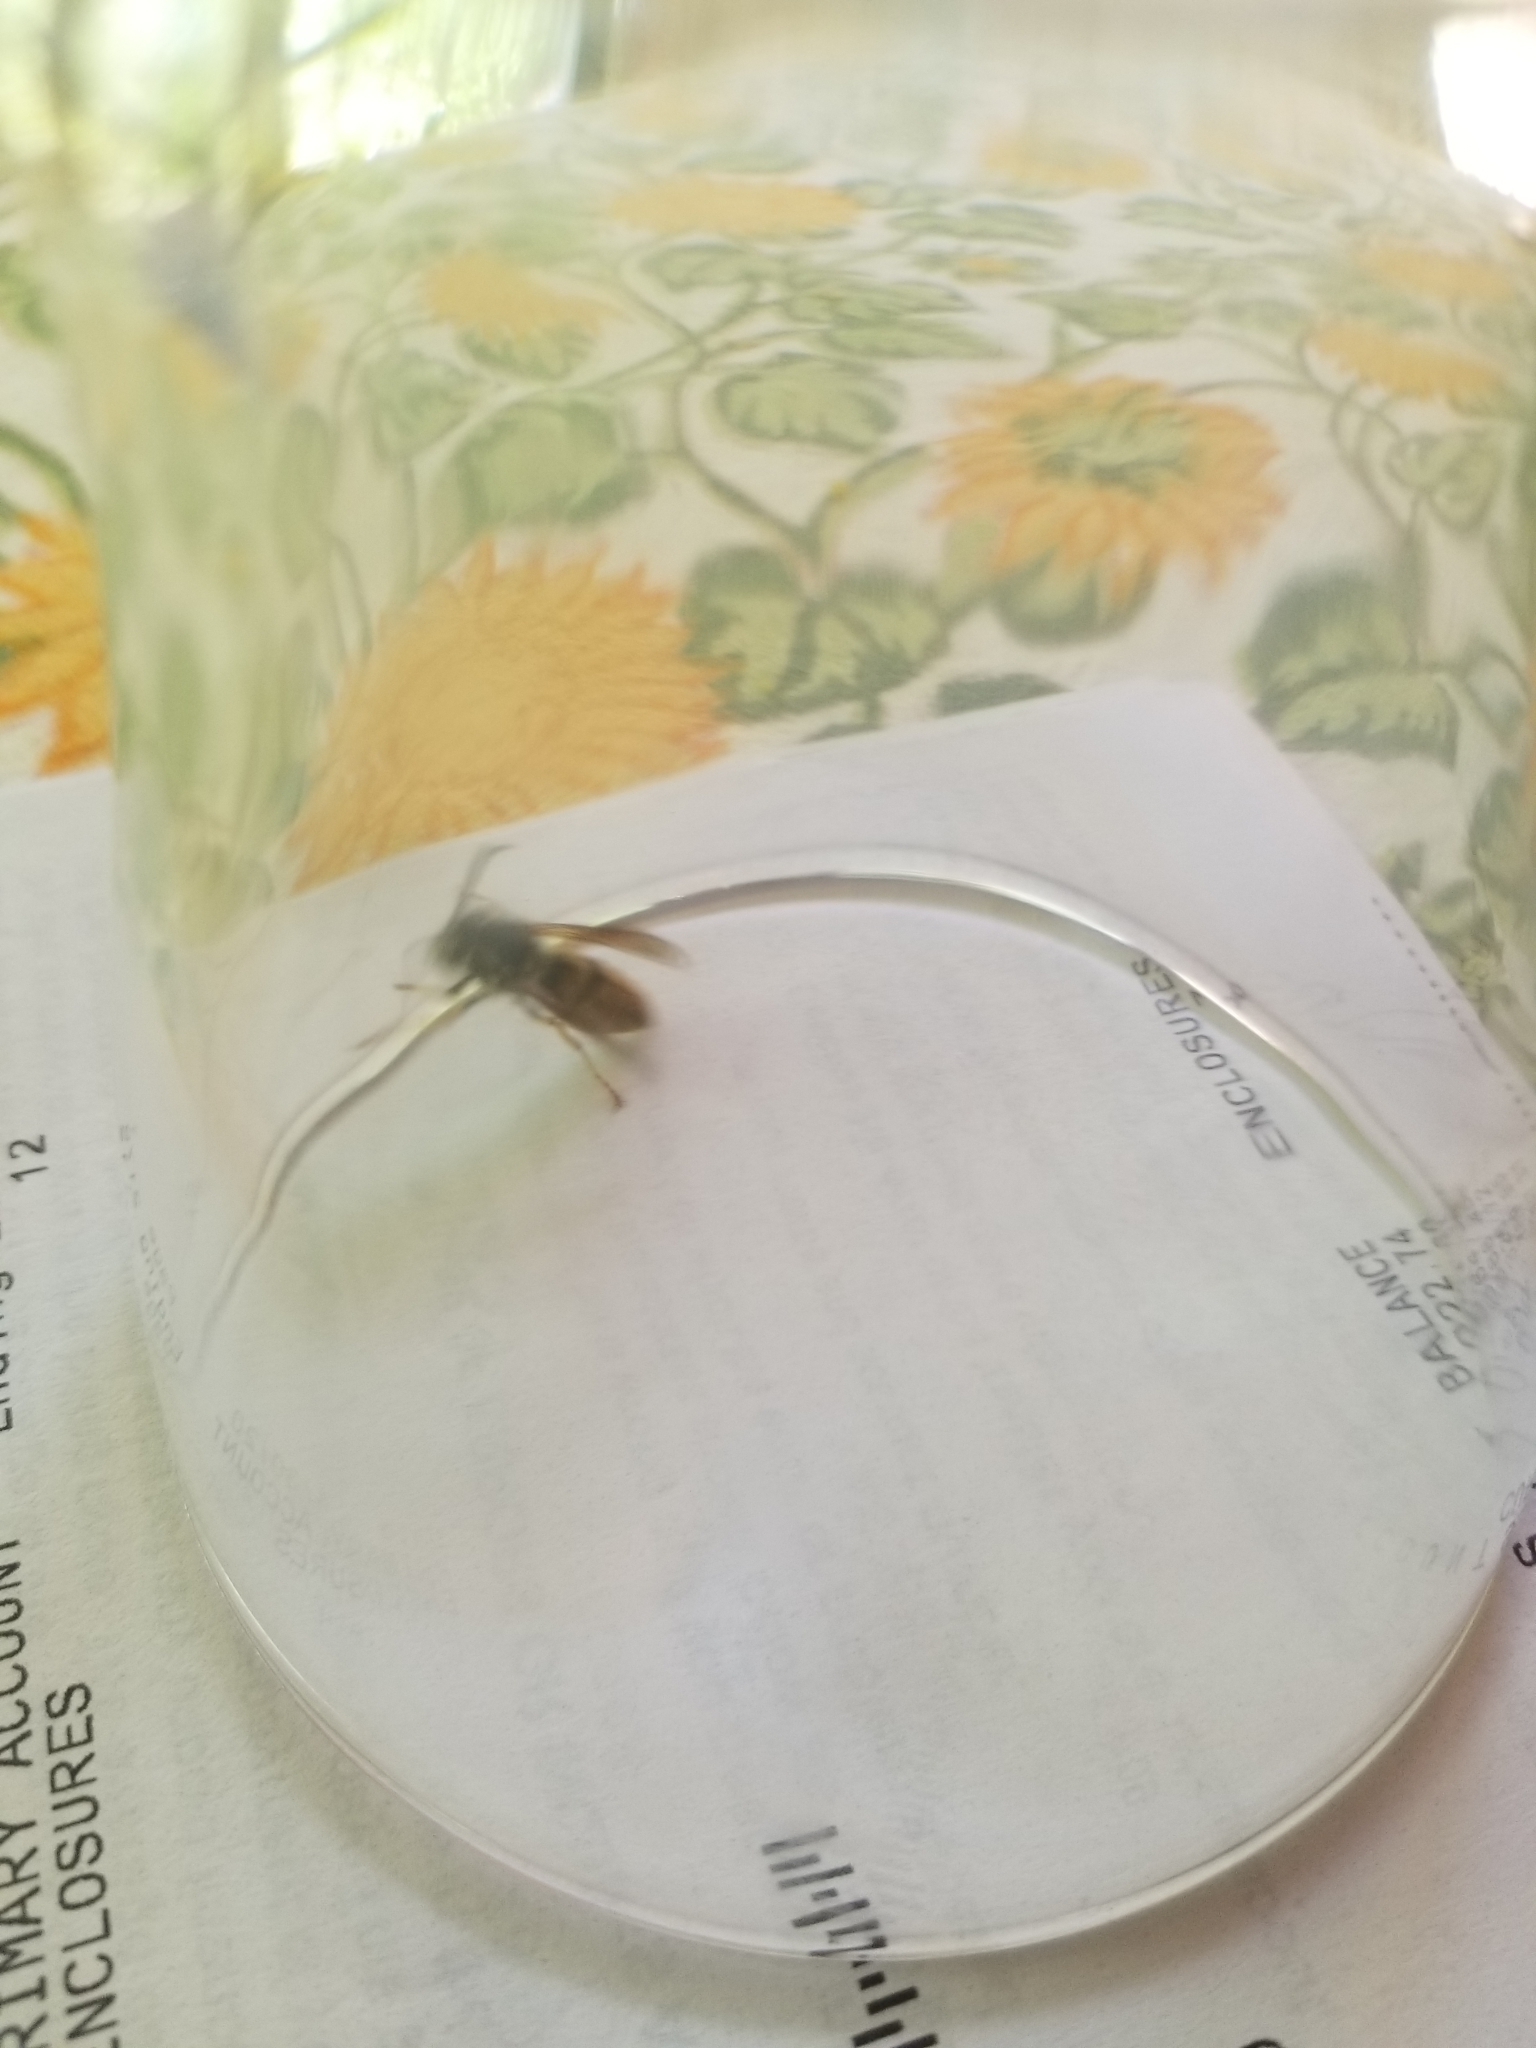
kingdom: Animalia
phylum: Arthropoda
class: Insecta
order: Hymenoptera
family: Vespidae
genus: Vespula
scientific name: Vespula maculifrons
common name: Eastern yellowjacket
